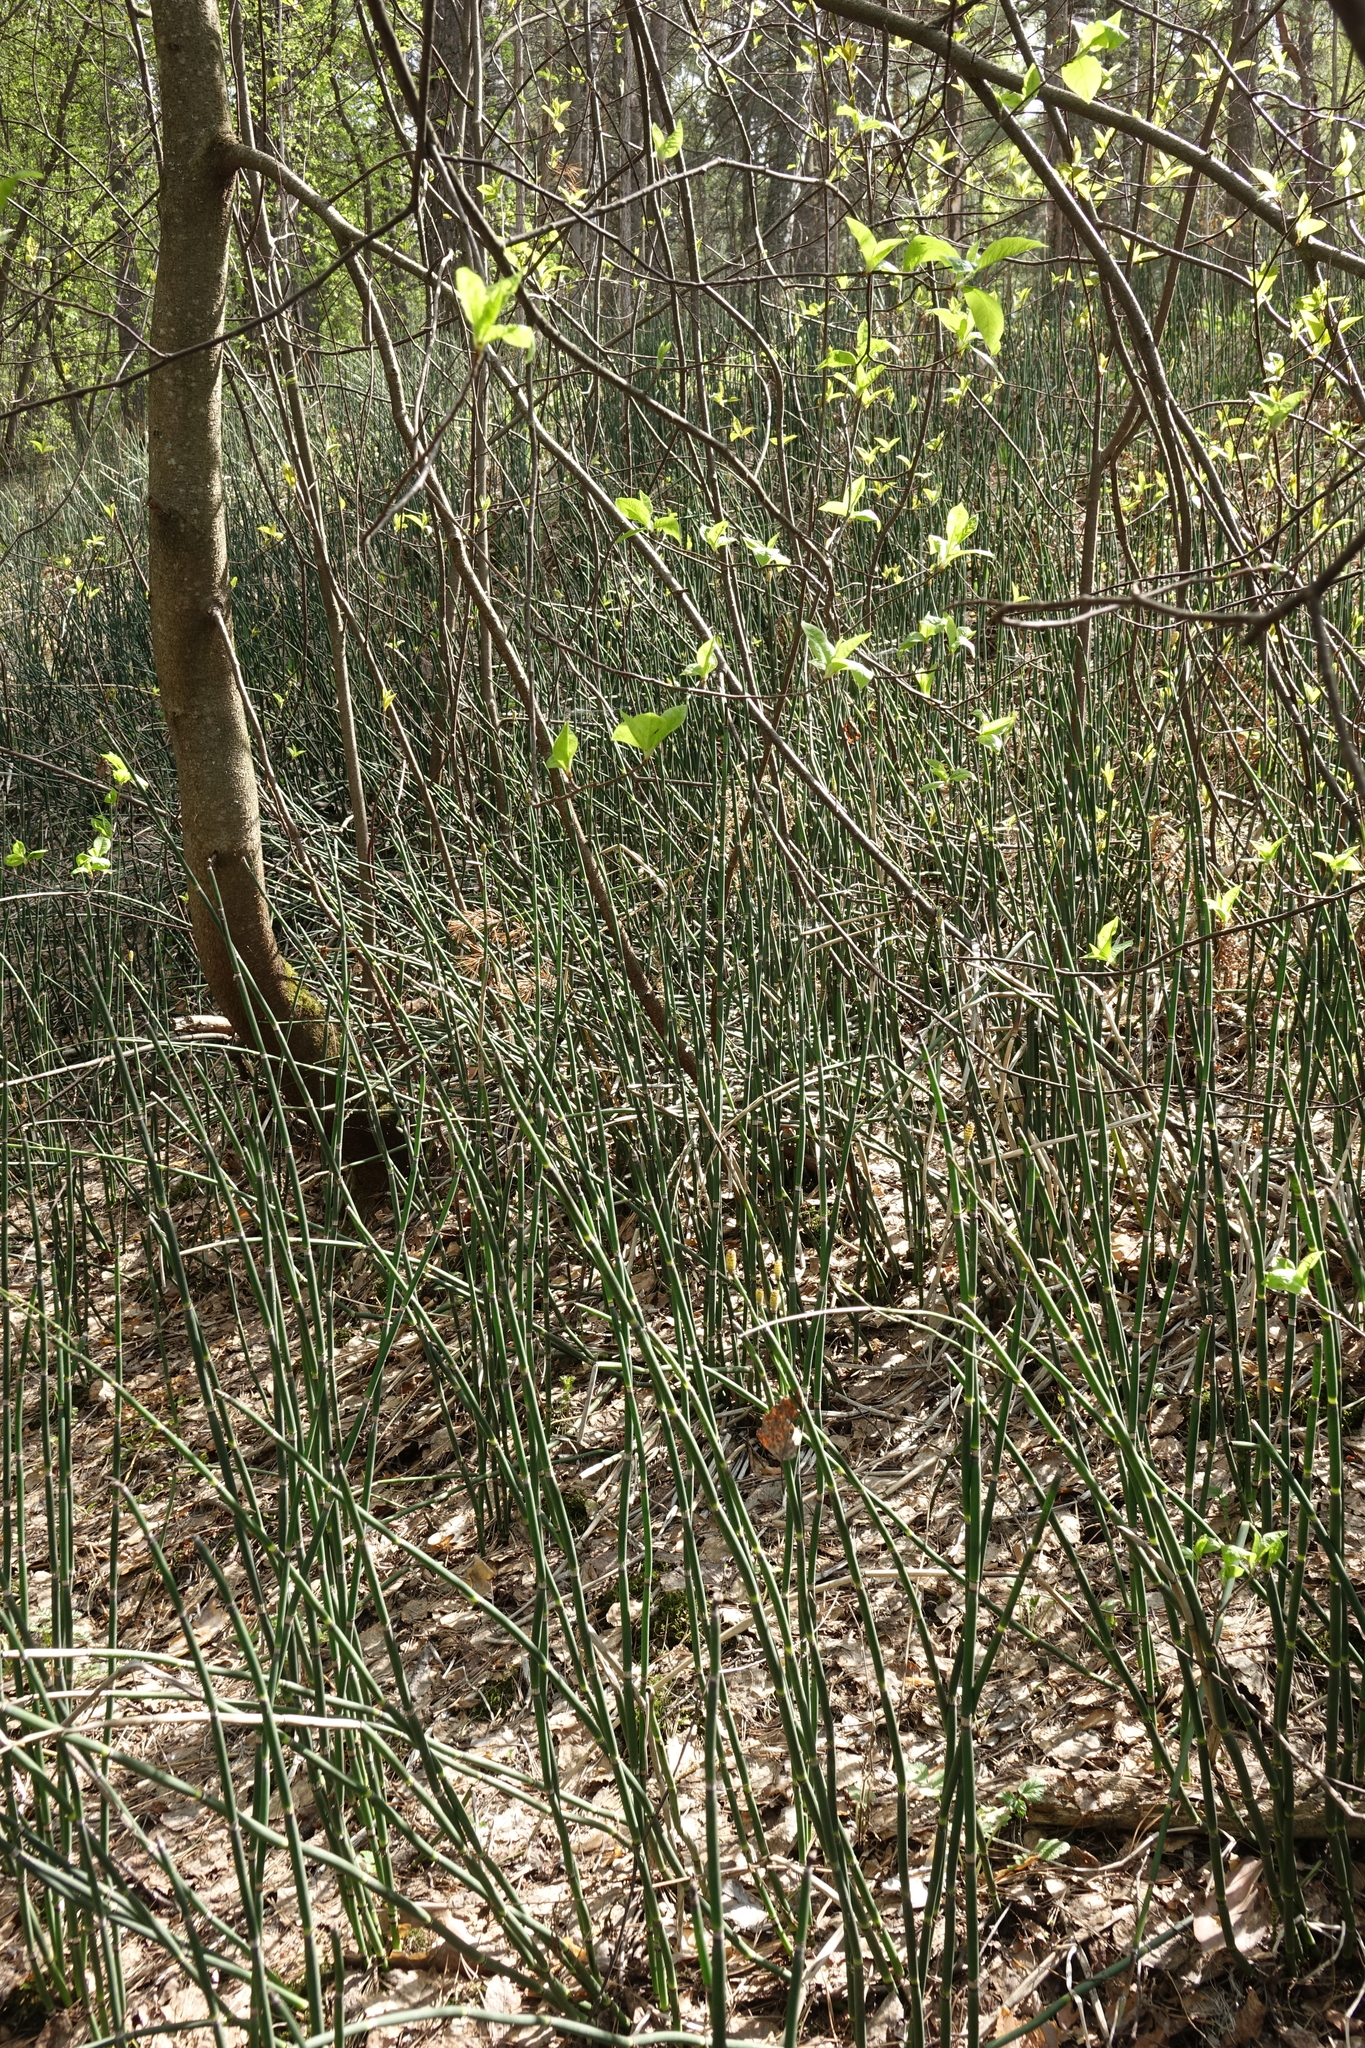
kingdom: Plantae
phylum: Tracheophyta
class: Magnoliopsida
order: Rosales
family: Rosaceae
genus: Prunus
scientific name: Prunus padus
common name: Bird cherry
